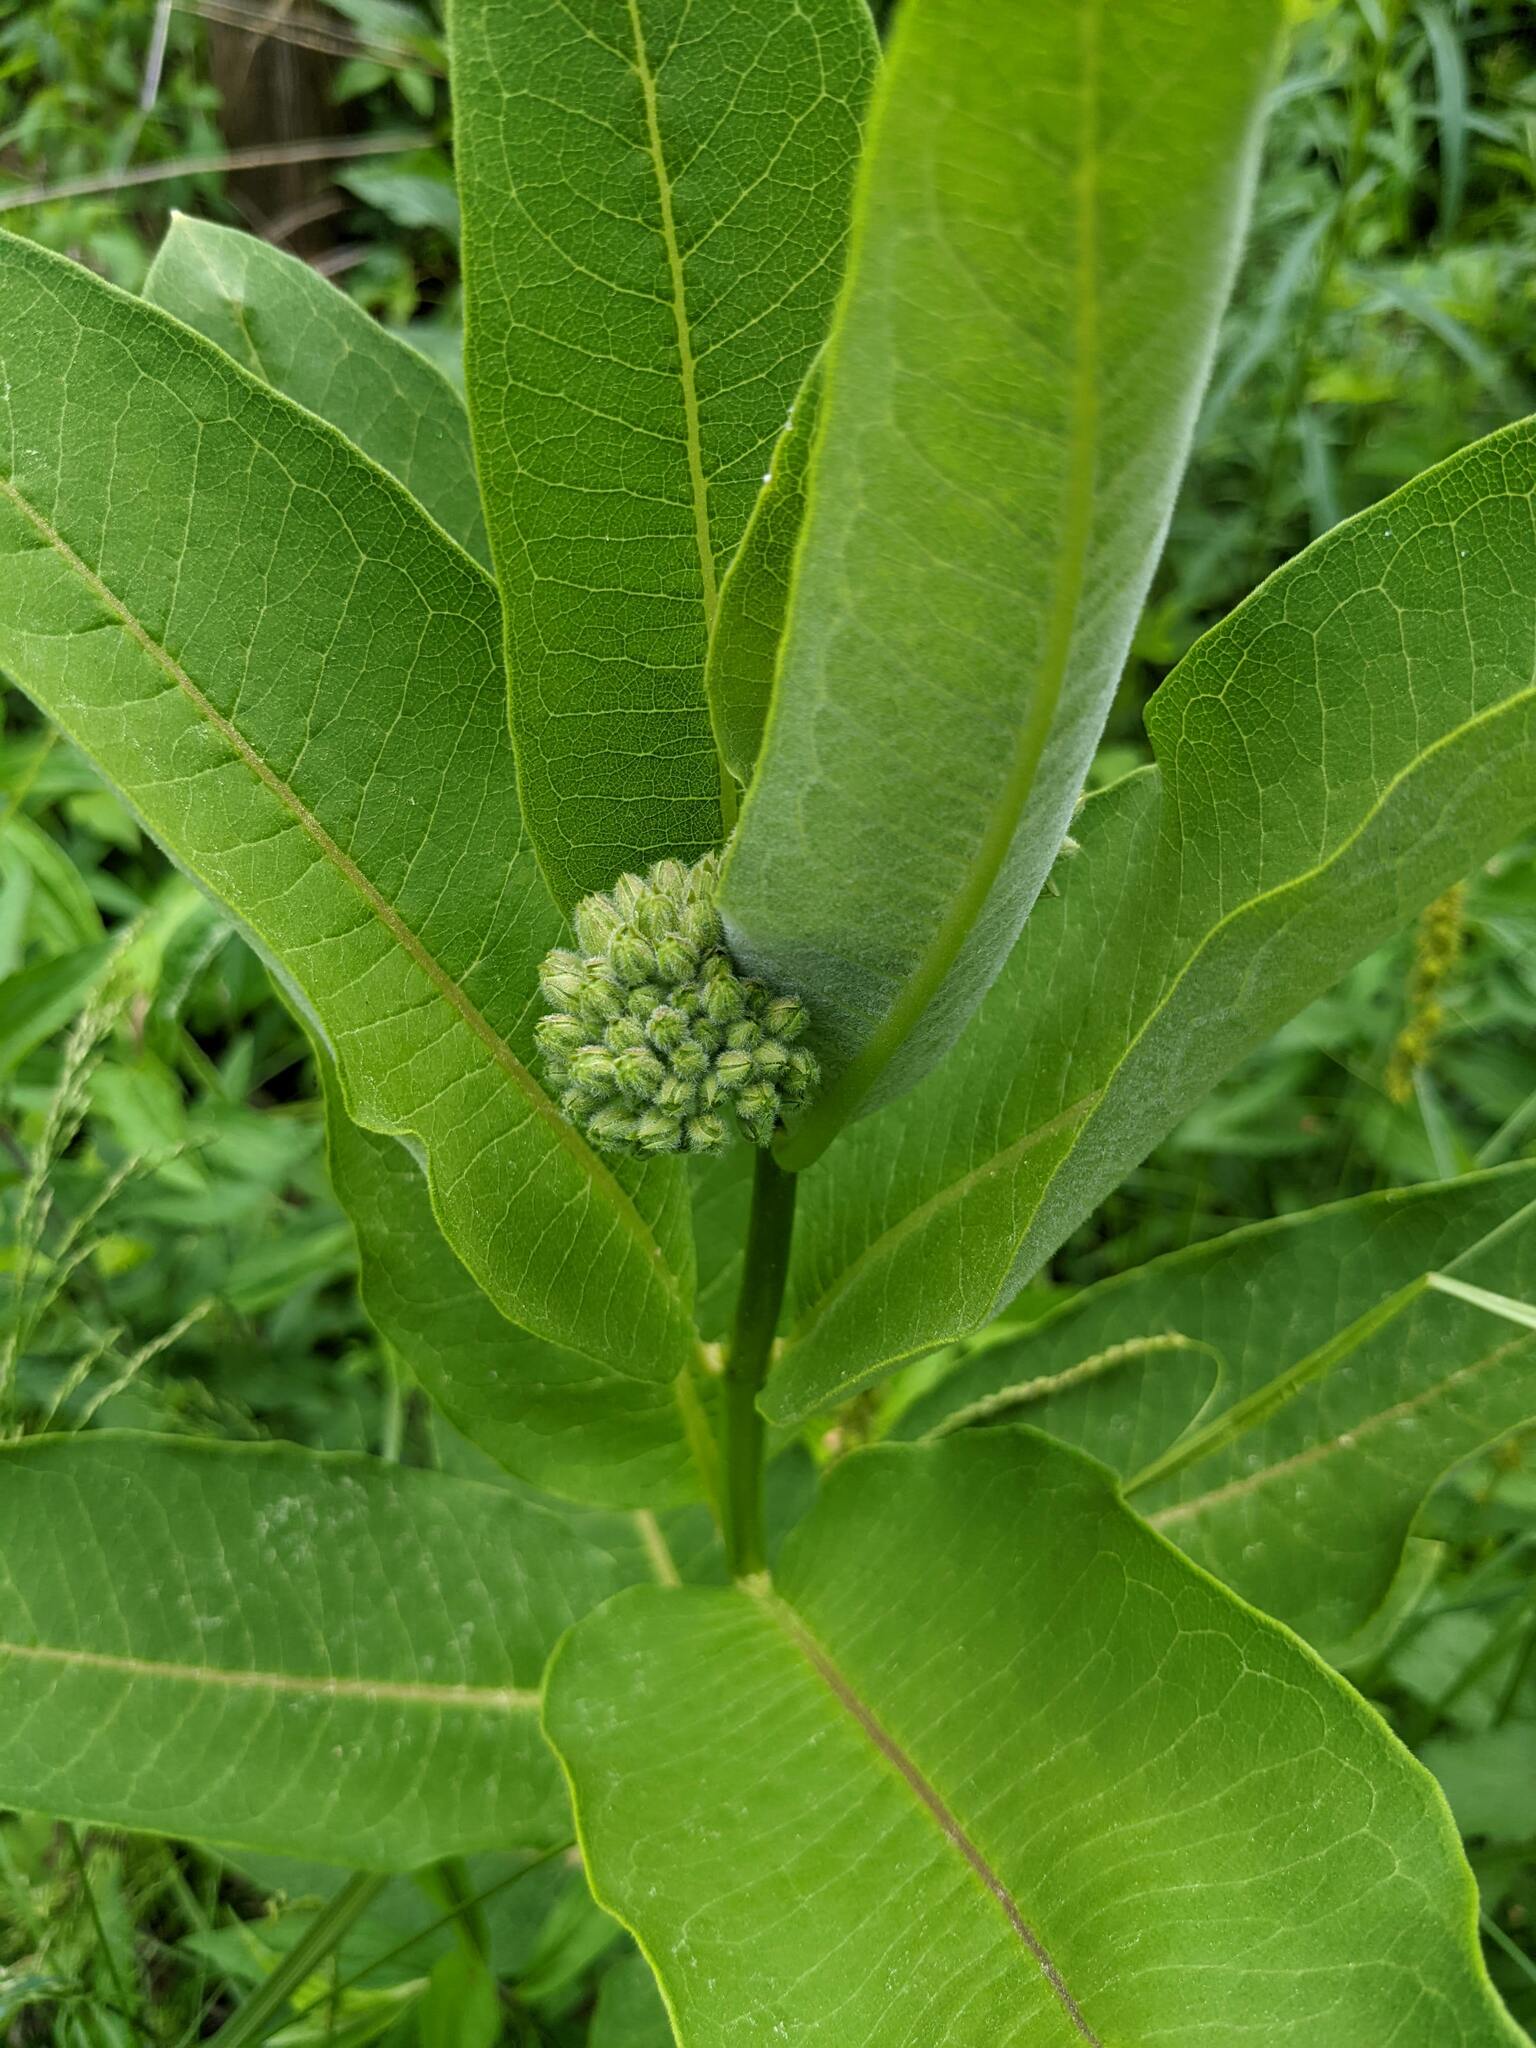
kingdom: Plantae
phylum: Tracheophyta
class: Magnoliopsida
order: Gentianales
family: Apocynaceae
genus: Asclepias
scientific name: Asclepias syriaca
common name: Common milkweed
